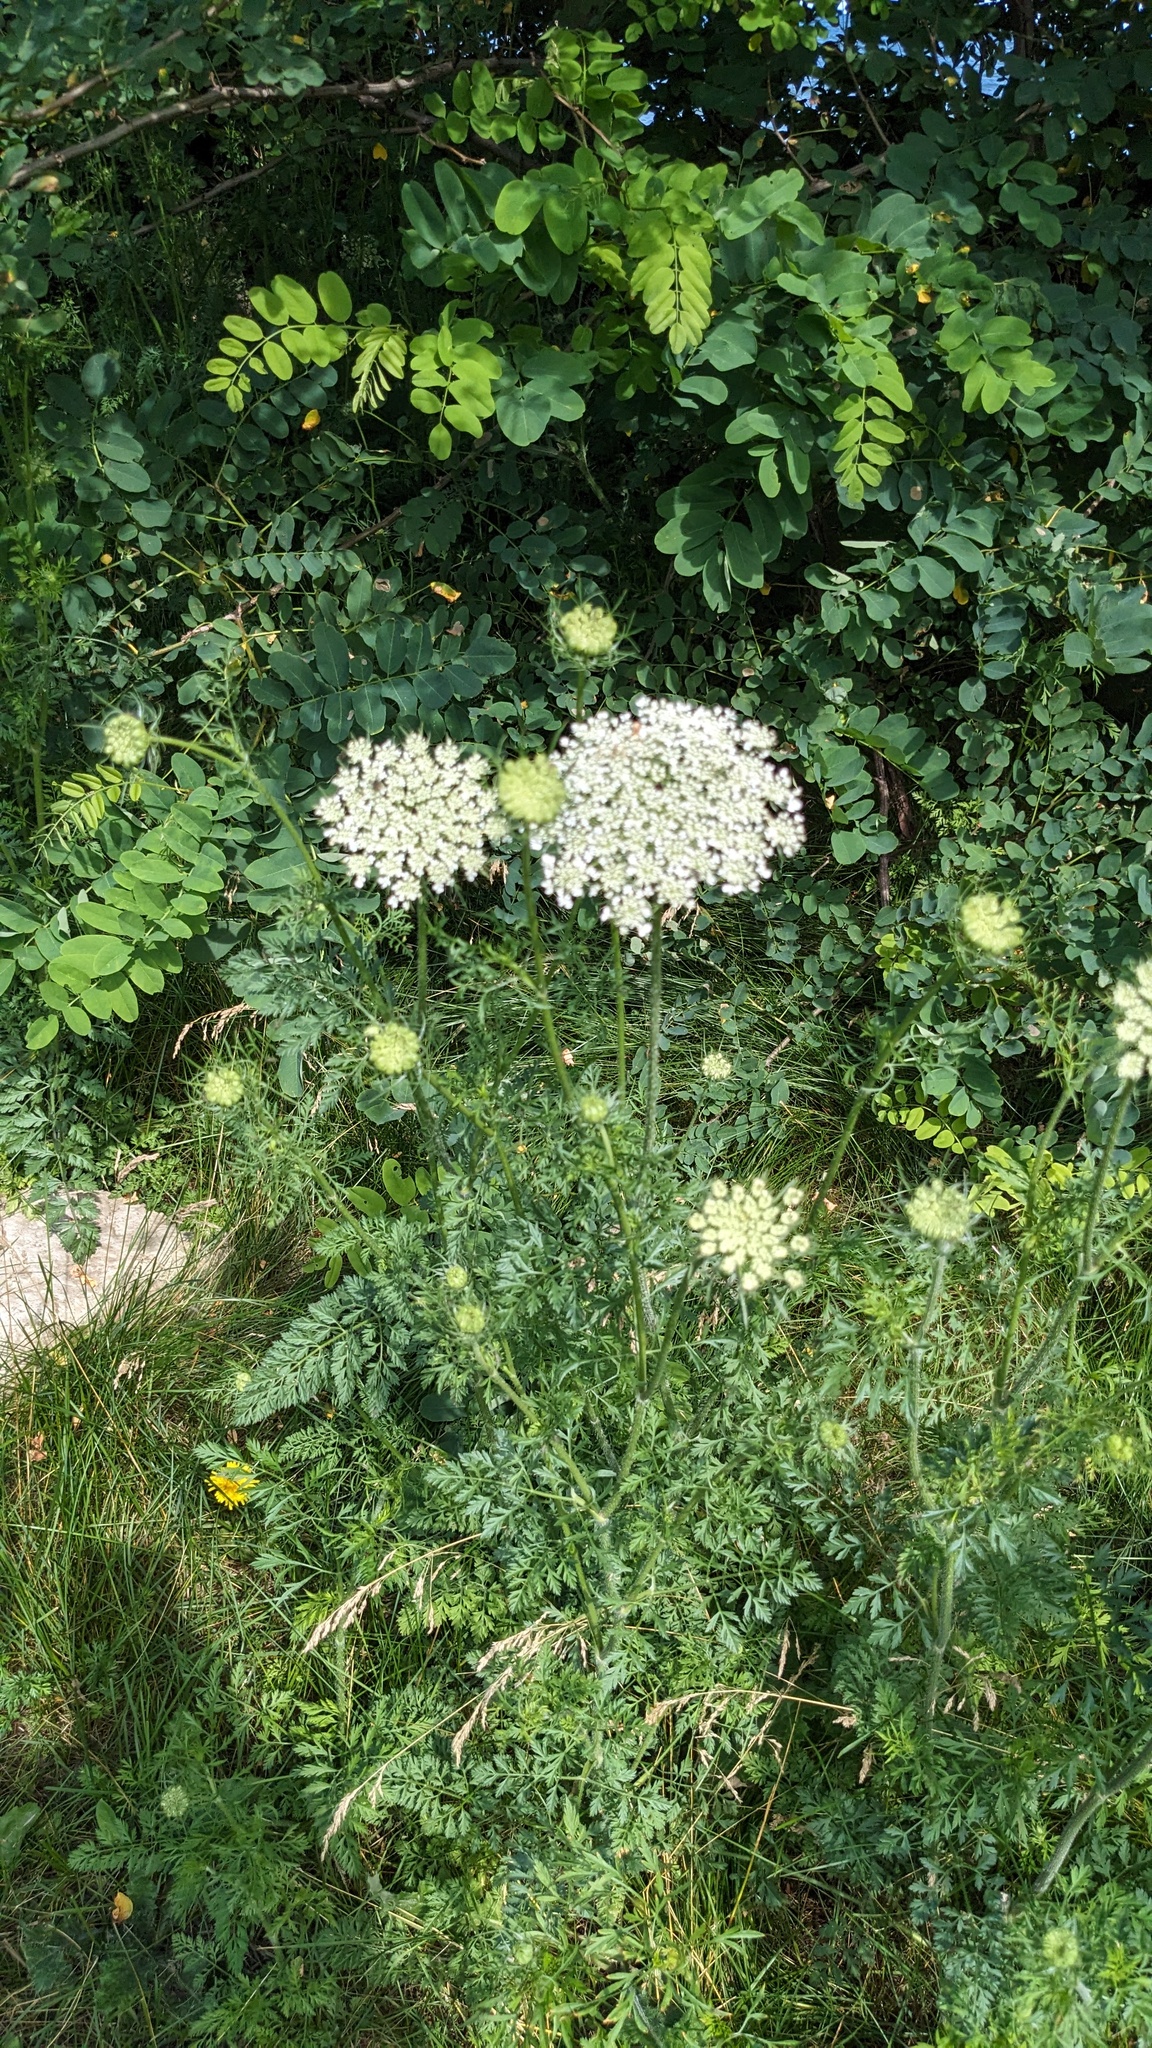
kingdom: Plantae
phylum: Tracheophyta
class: Magnoliopsida
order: Apiales
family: Apiaceae
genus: Daucus
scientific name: Daucus carota
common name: Wild carrot
